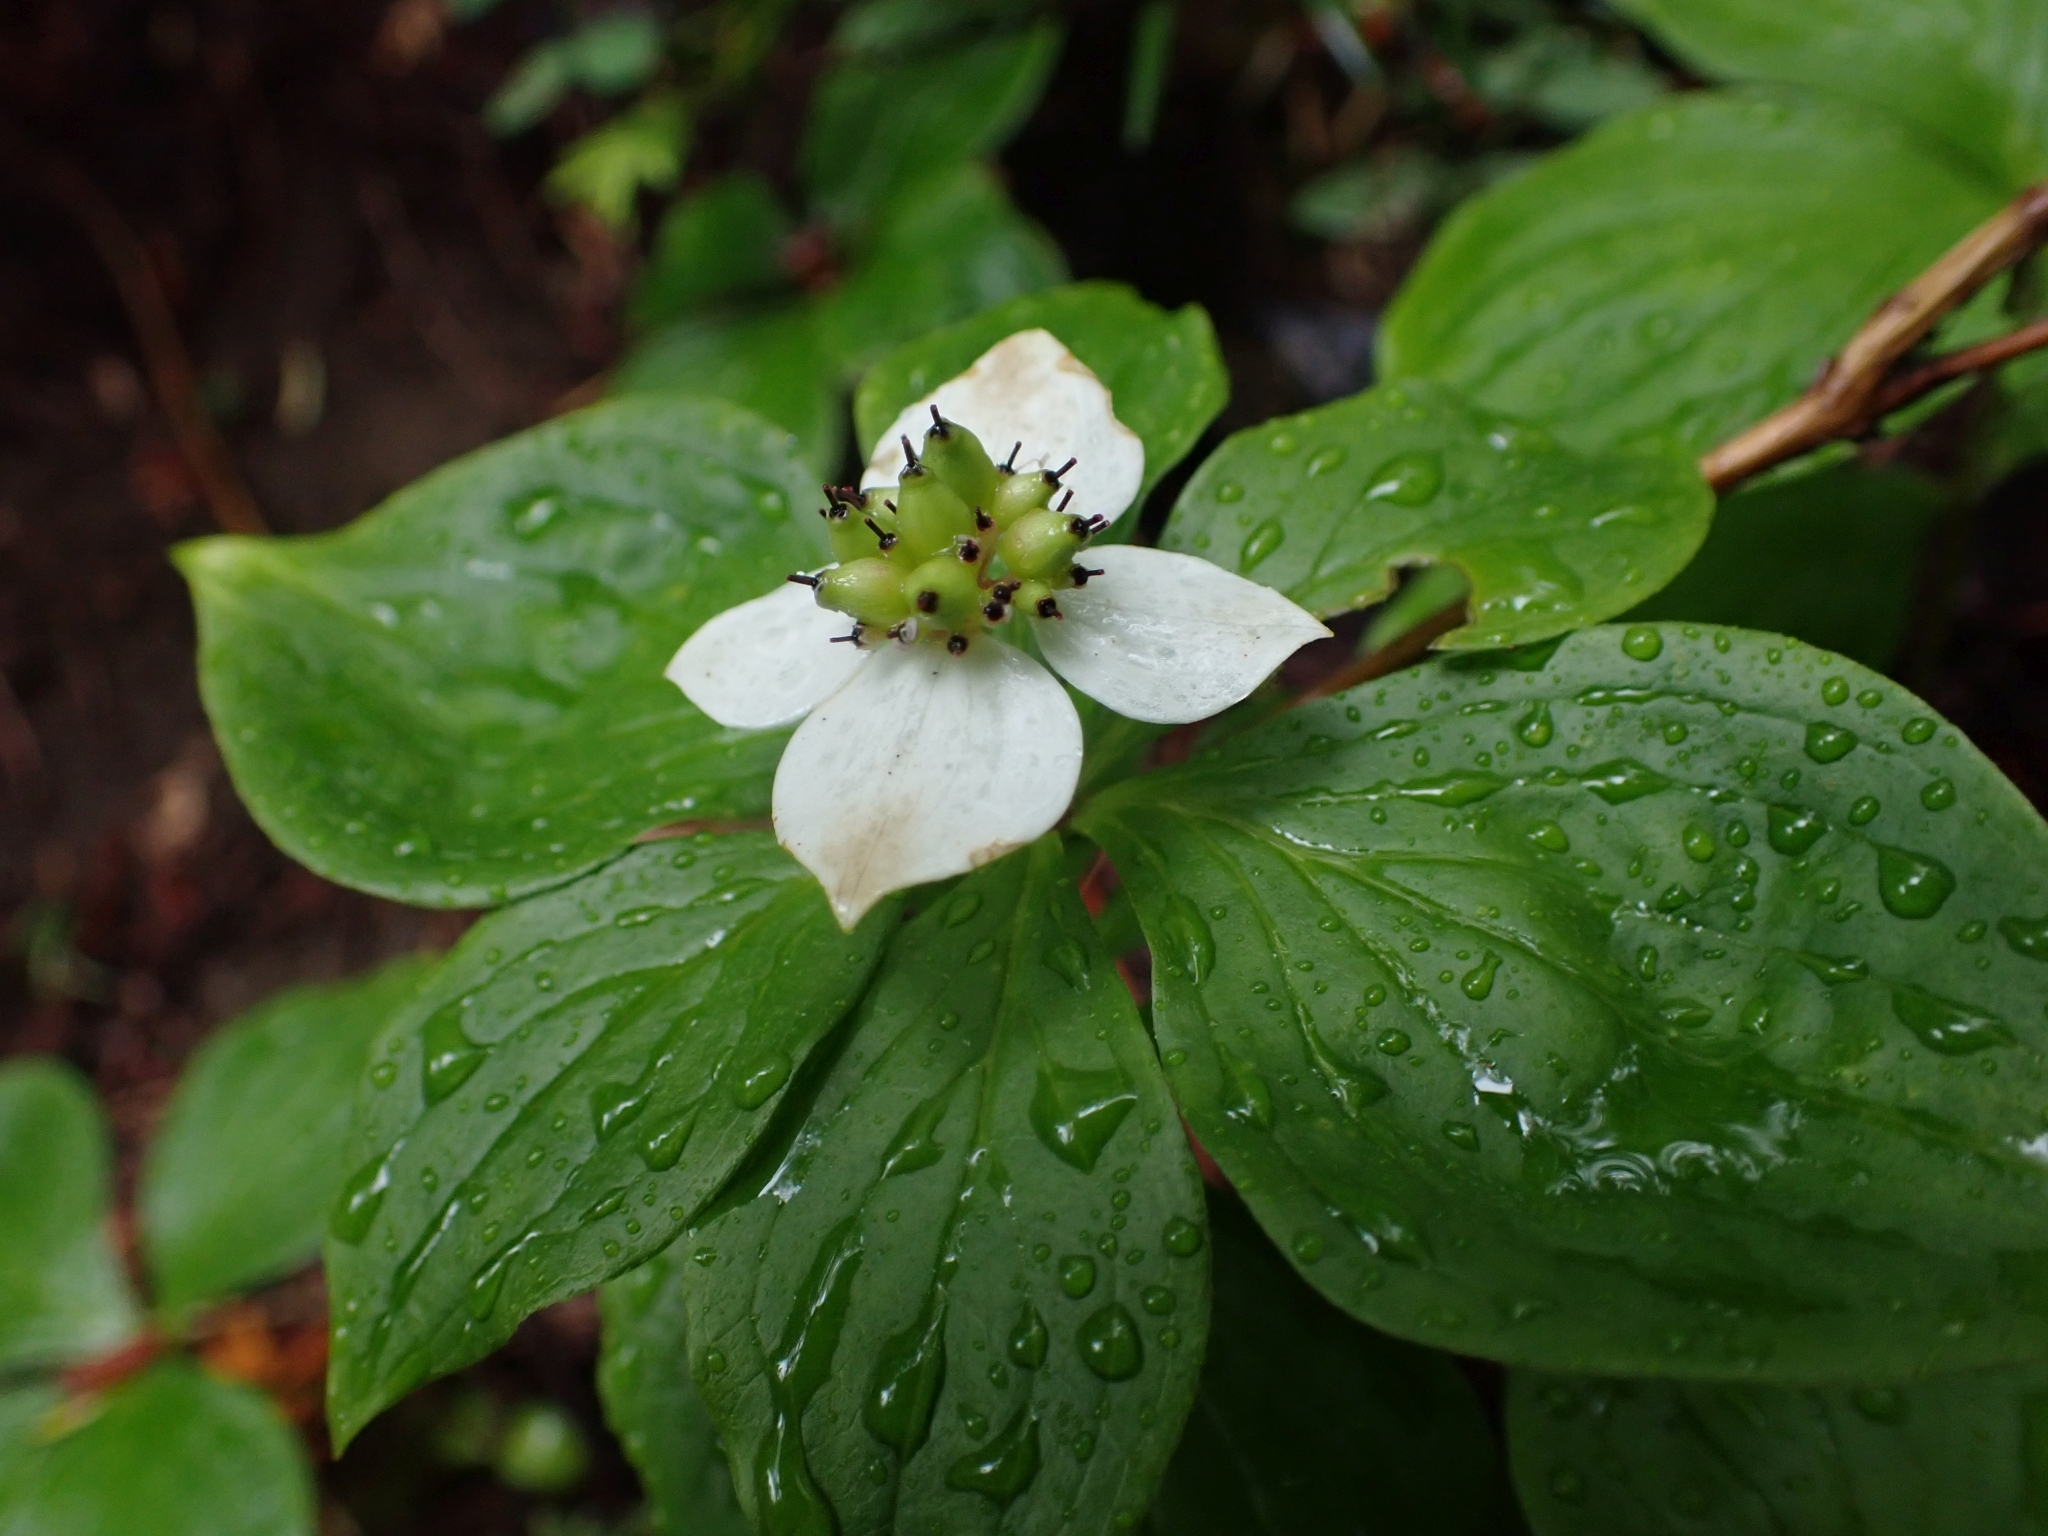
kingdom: Plantae
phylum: Tracheophyta
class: Magnoliopsida
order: Cornales
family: Cornaceae
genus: Cornus
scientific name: Cornus unalaschkensis
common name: Alaska bunchberry
